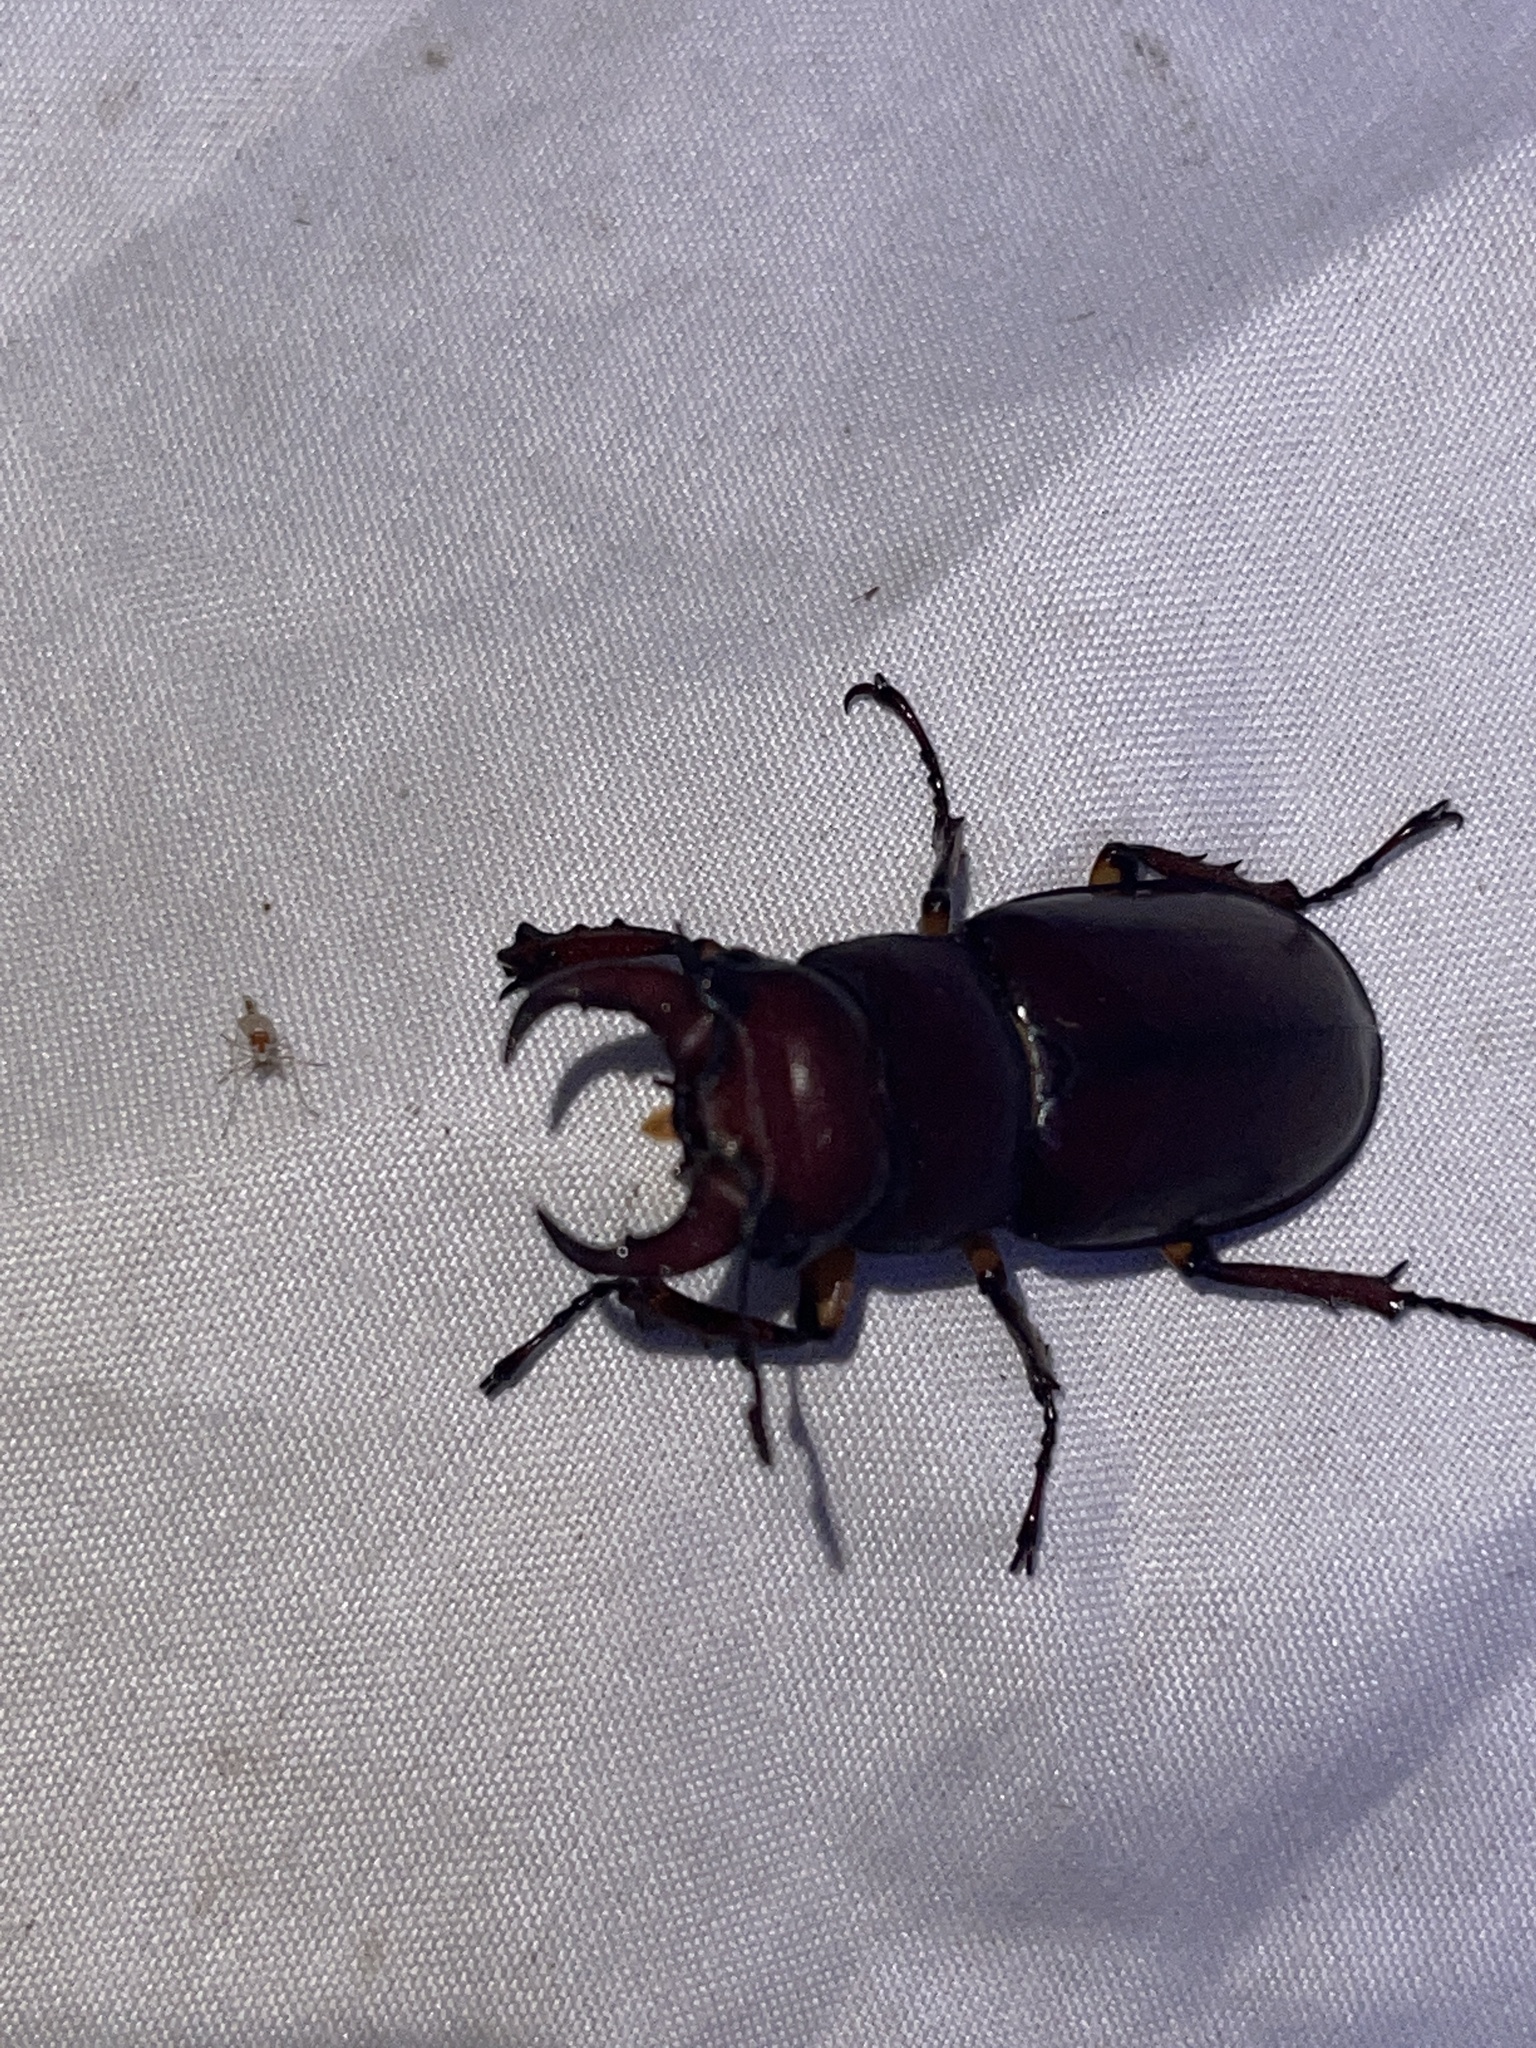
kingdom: Animalia
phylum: Arthropoda
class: Insecta
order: Coleoptera
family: Lucanidae
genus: Lucanus
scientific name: Lucanus capreolus
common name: Stag beetle
